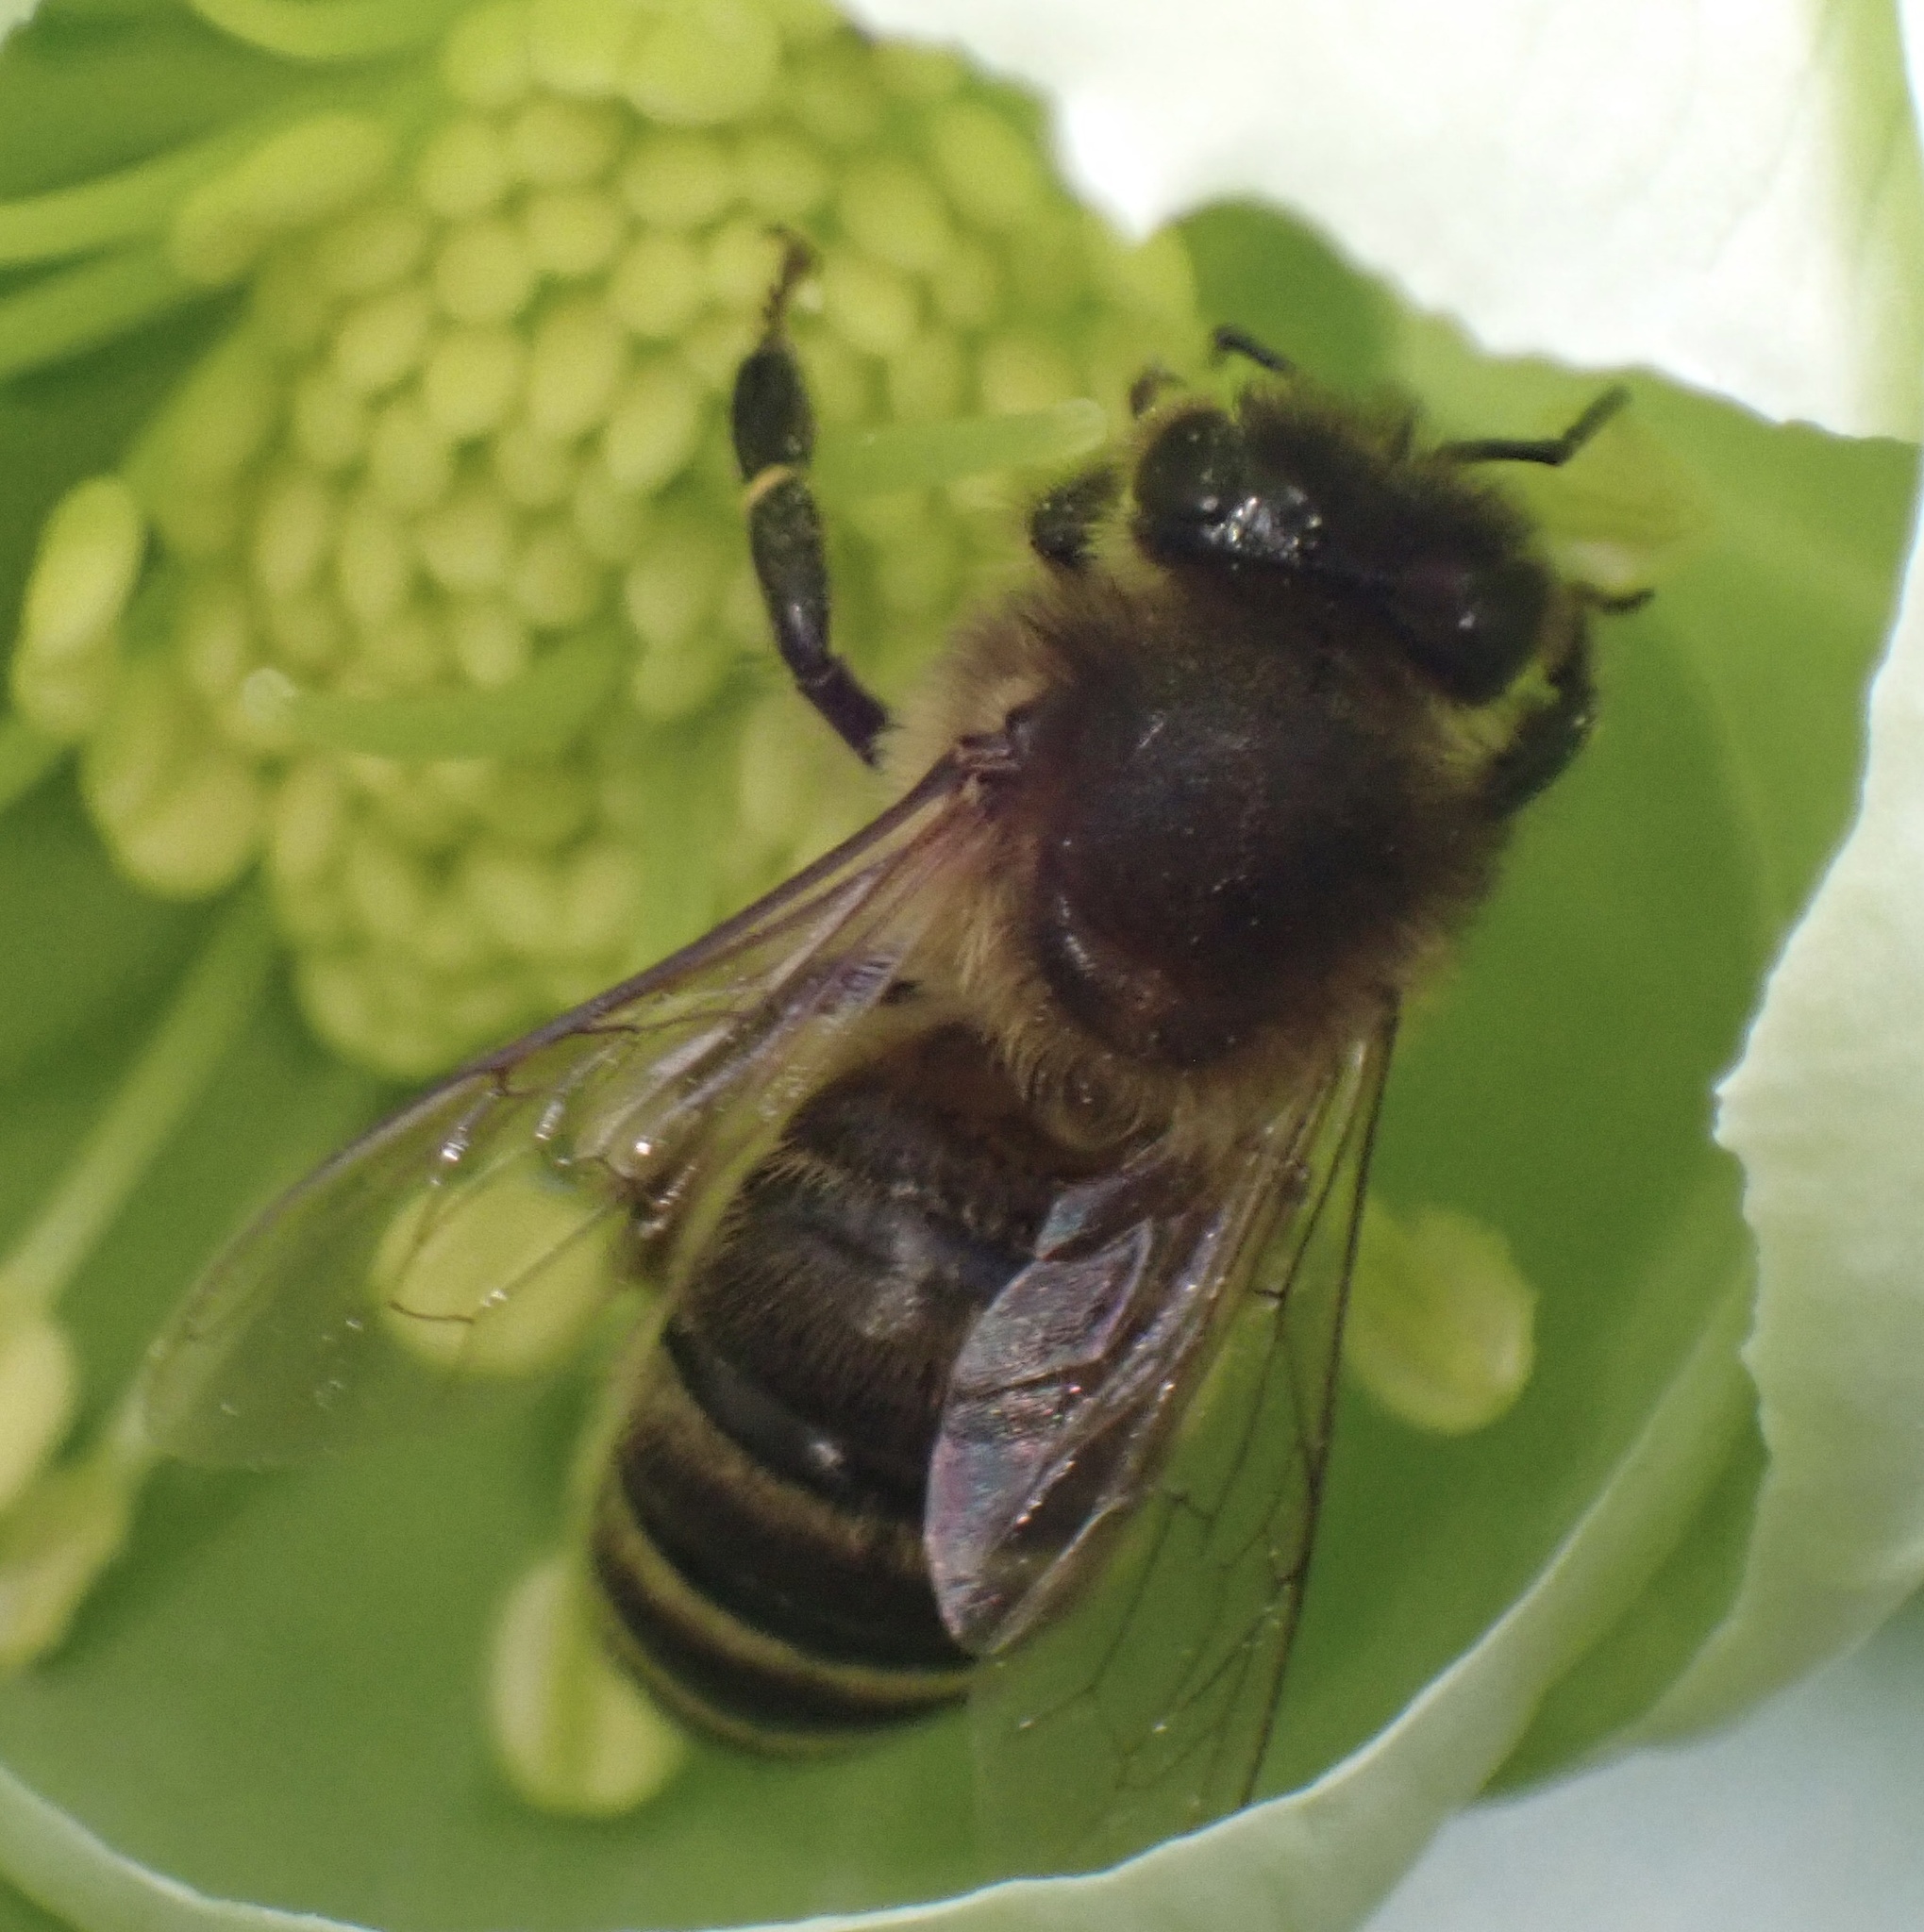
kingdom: Animalia
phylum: Arthropoda
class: Insecta
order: Hymenoptera
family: Apidae
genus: Apis
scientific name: Apis mellifera
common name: Honey bee
